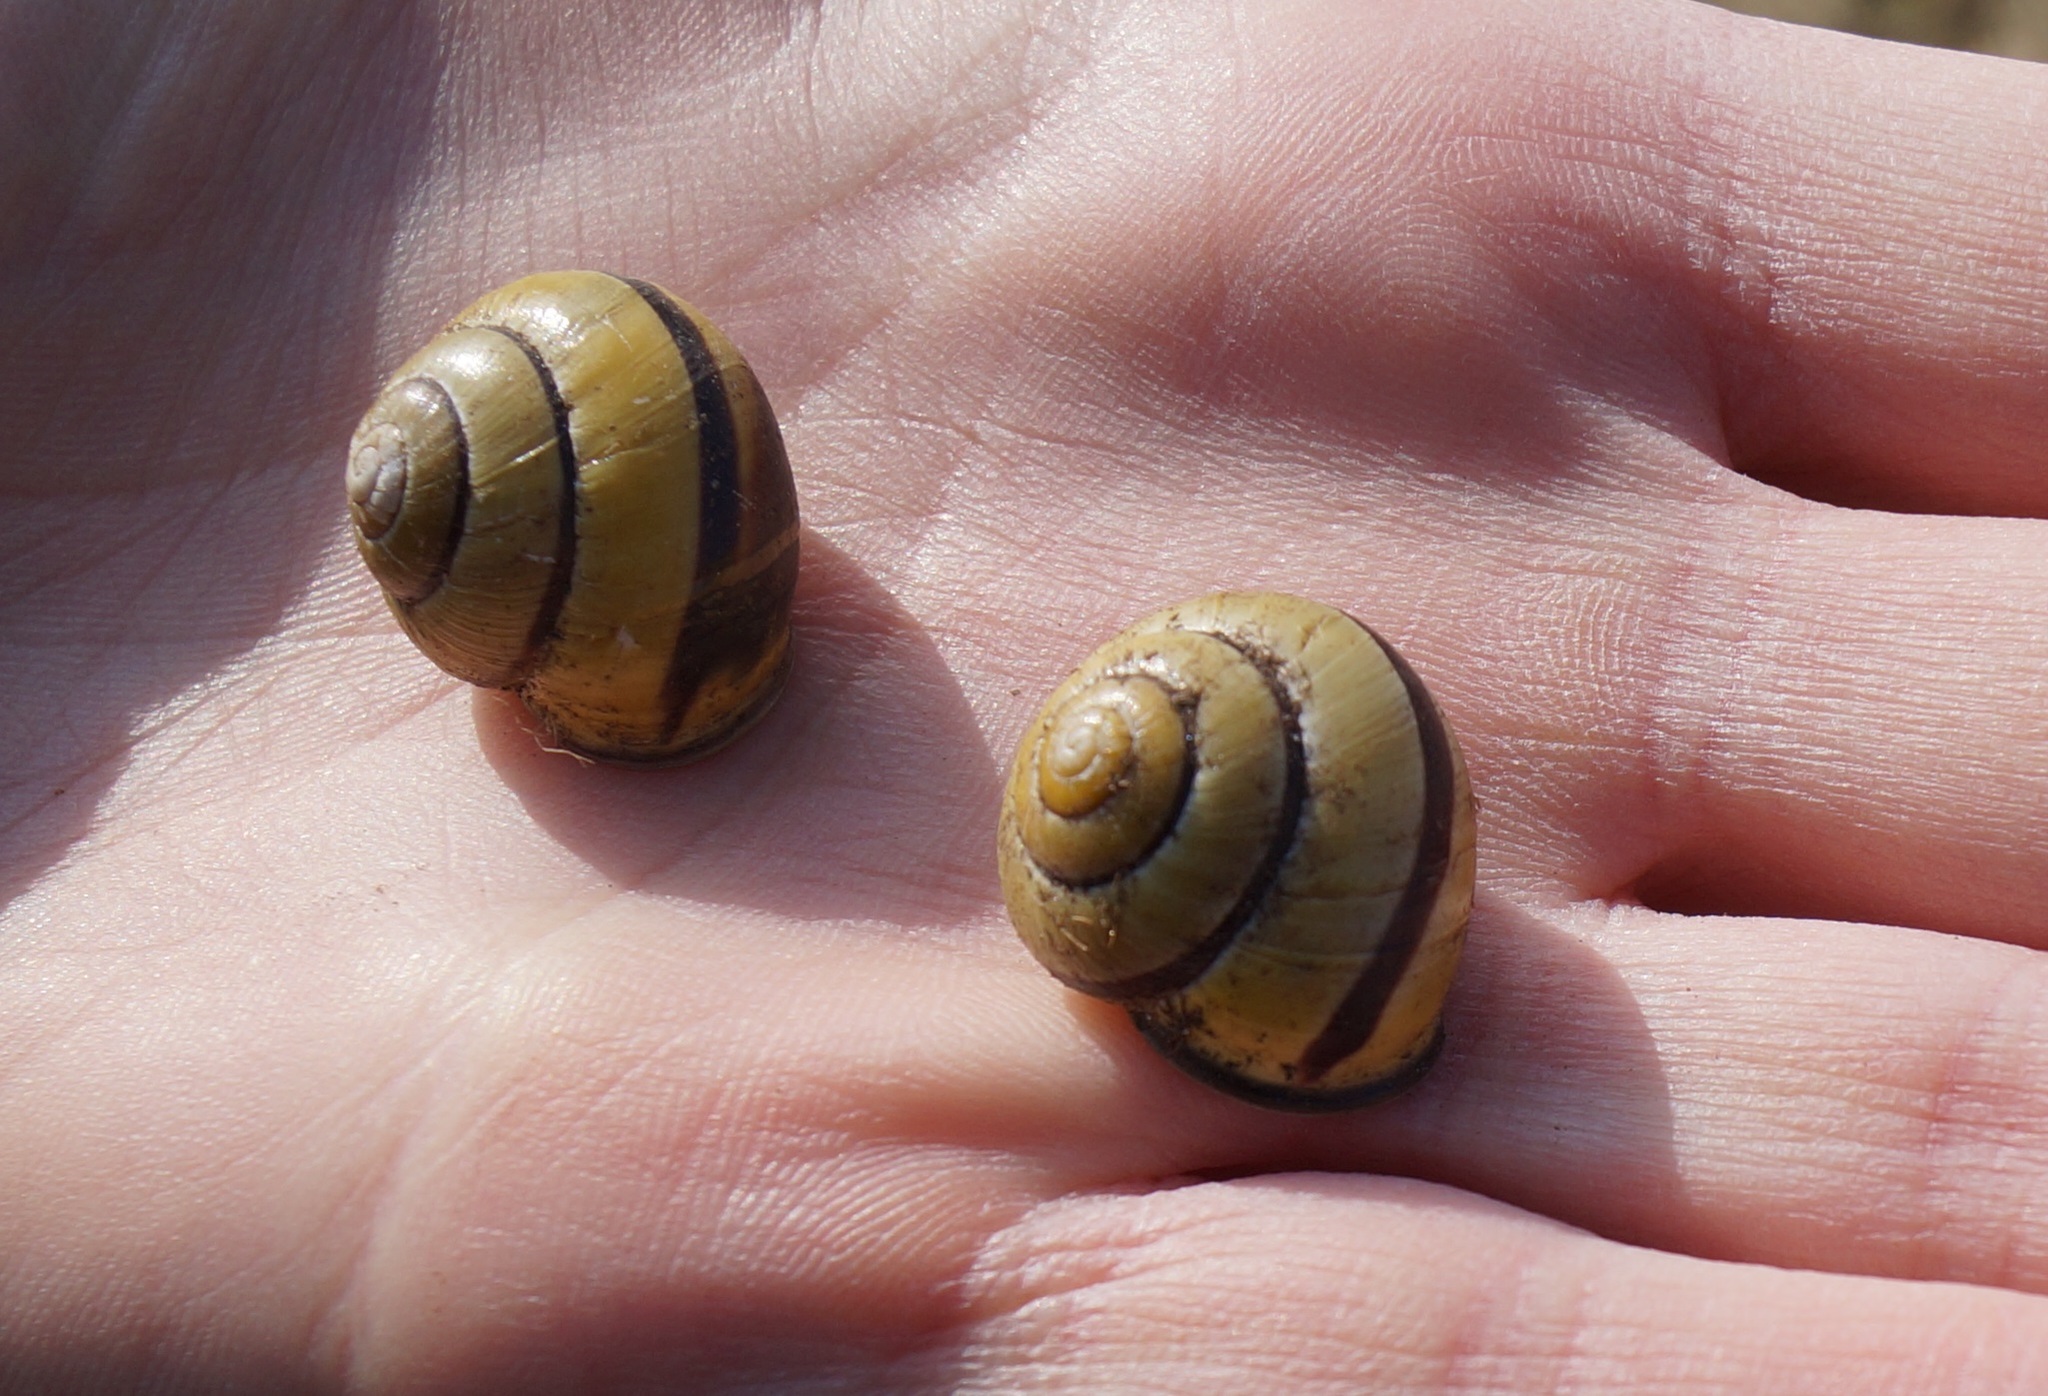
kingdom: Animalia
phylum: Mollusca
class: Gastropoda
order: Stylommatophora
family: Helicidae
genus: Cepaea
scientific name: Cepaea nemoralis
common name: Grovesnail
